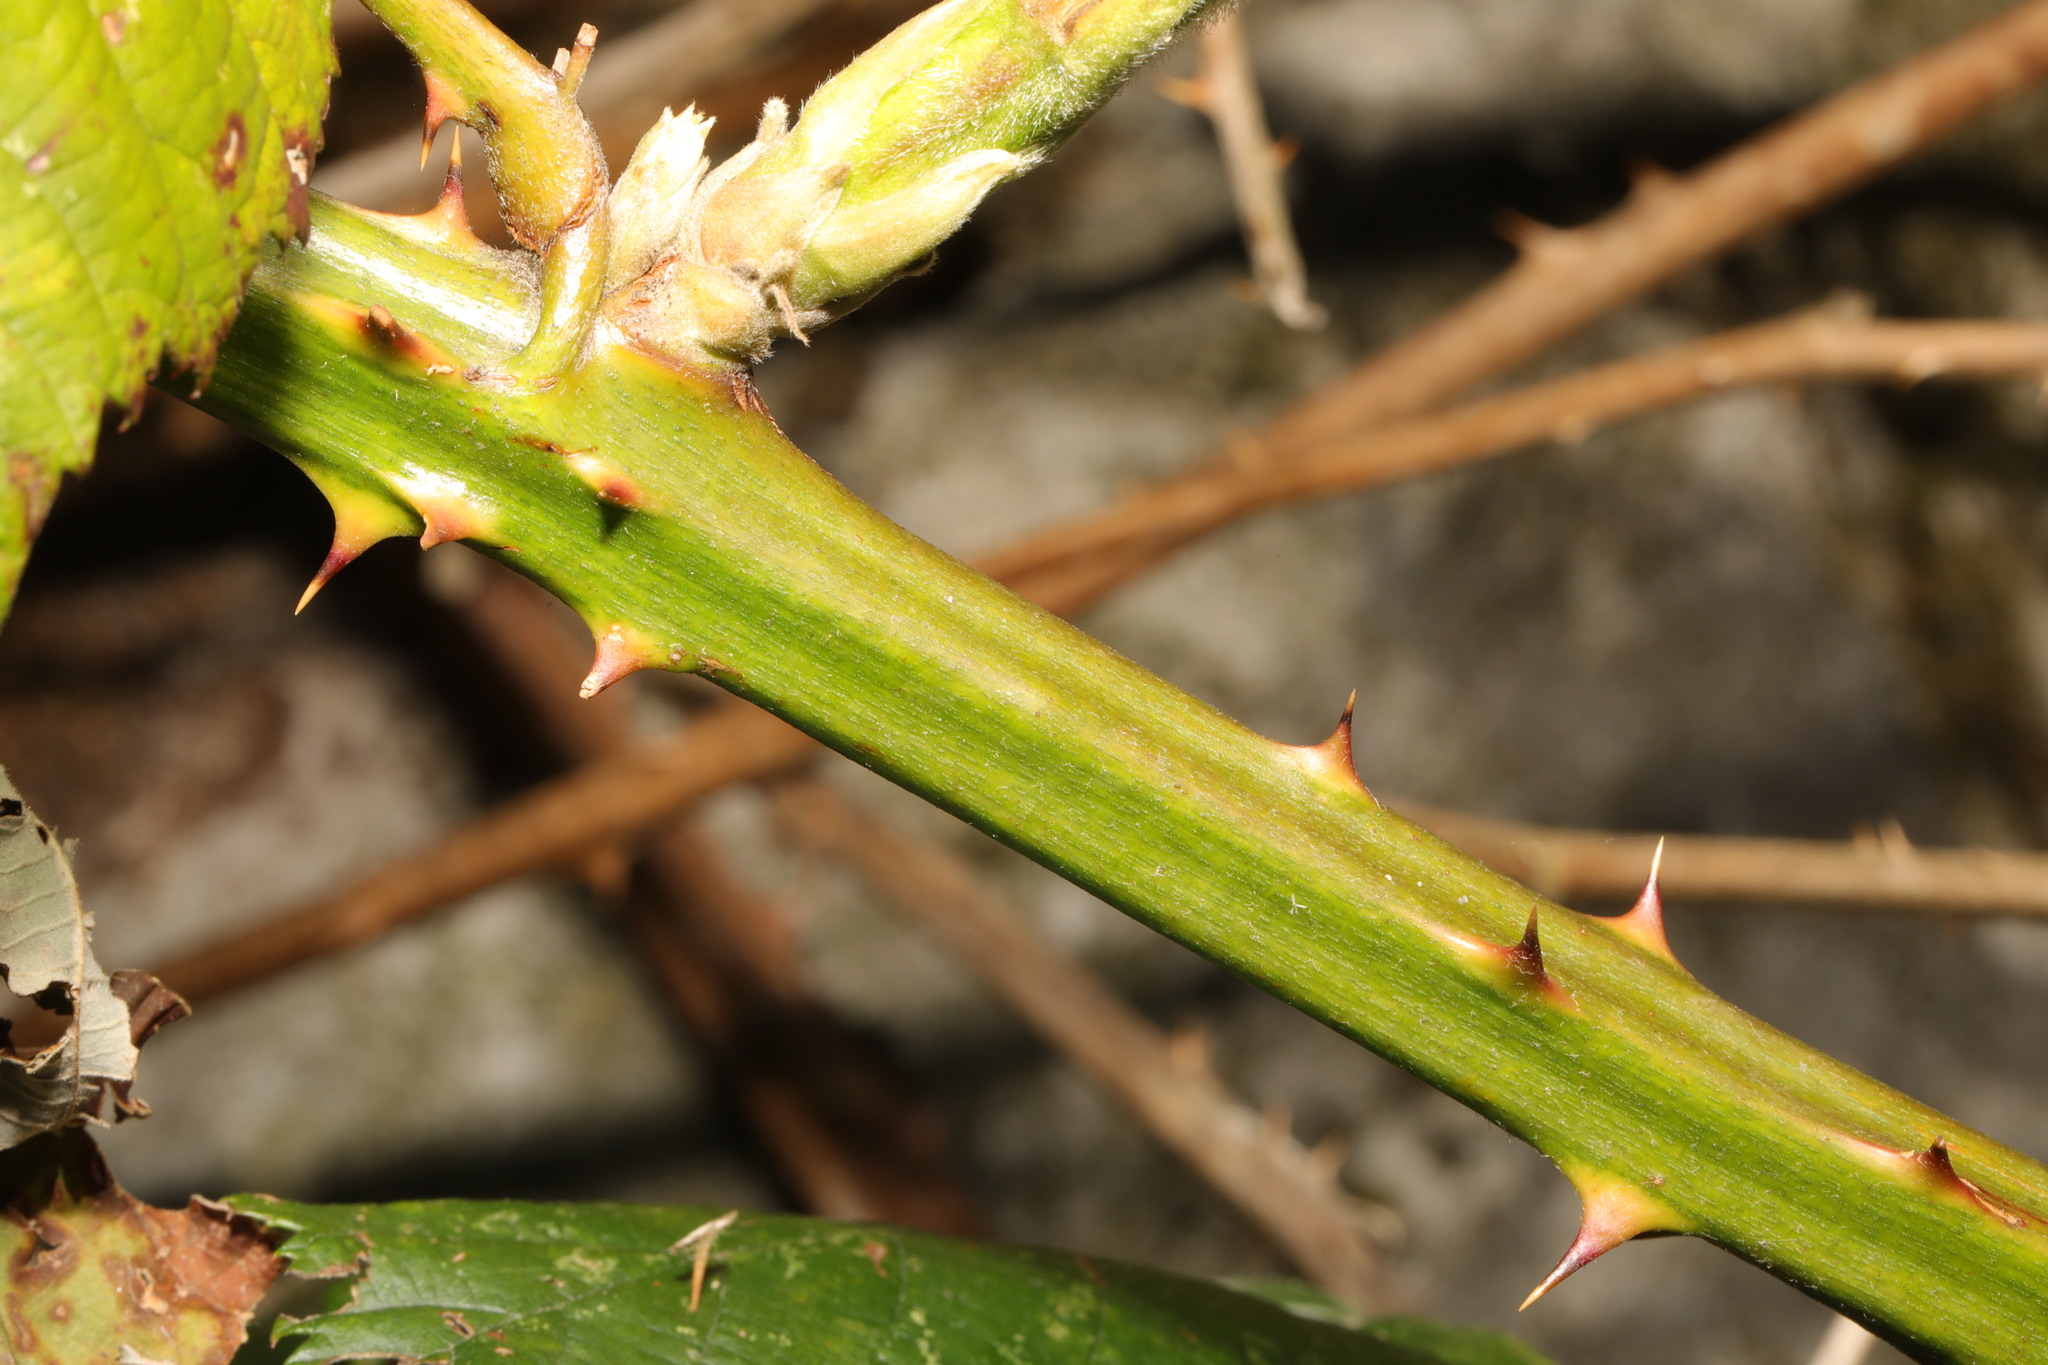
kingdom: Plantae
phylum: Tracheophyta
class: Magnoliopsida
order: Rosales
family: Rosaceae
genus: Rubus
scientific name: Rubus armeniacus
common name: Himalayan blackberry
